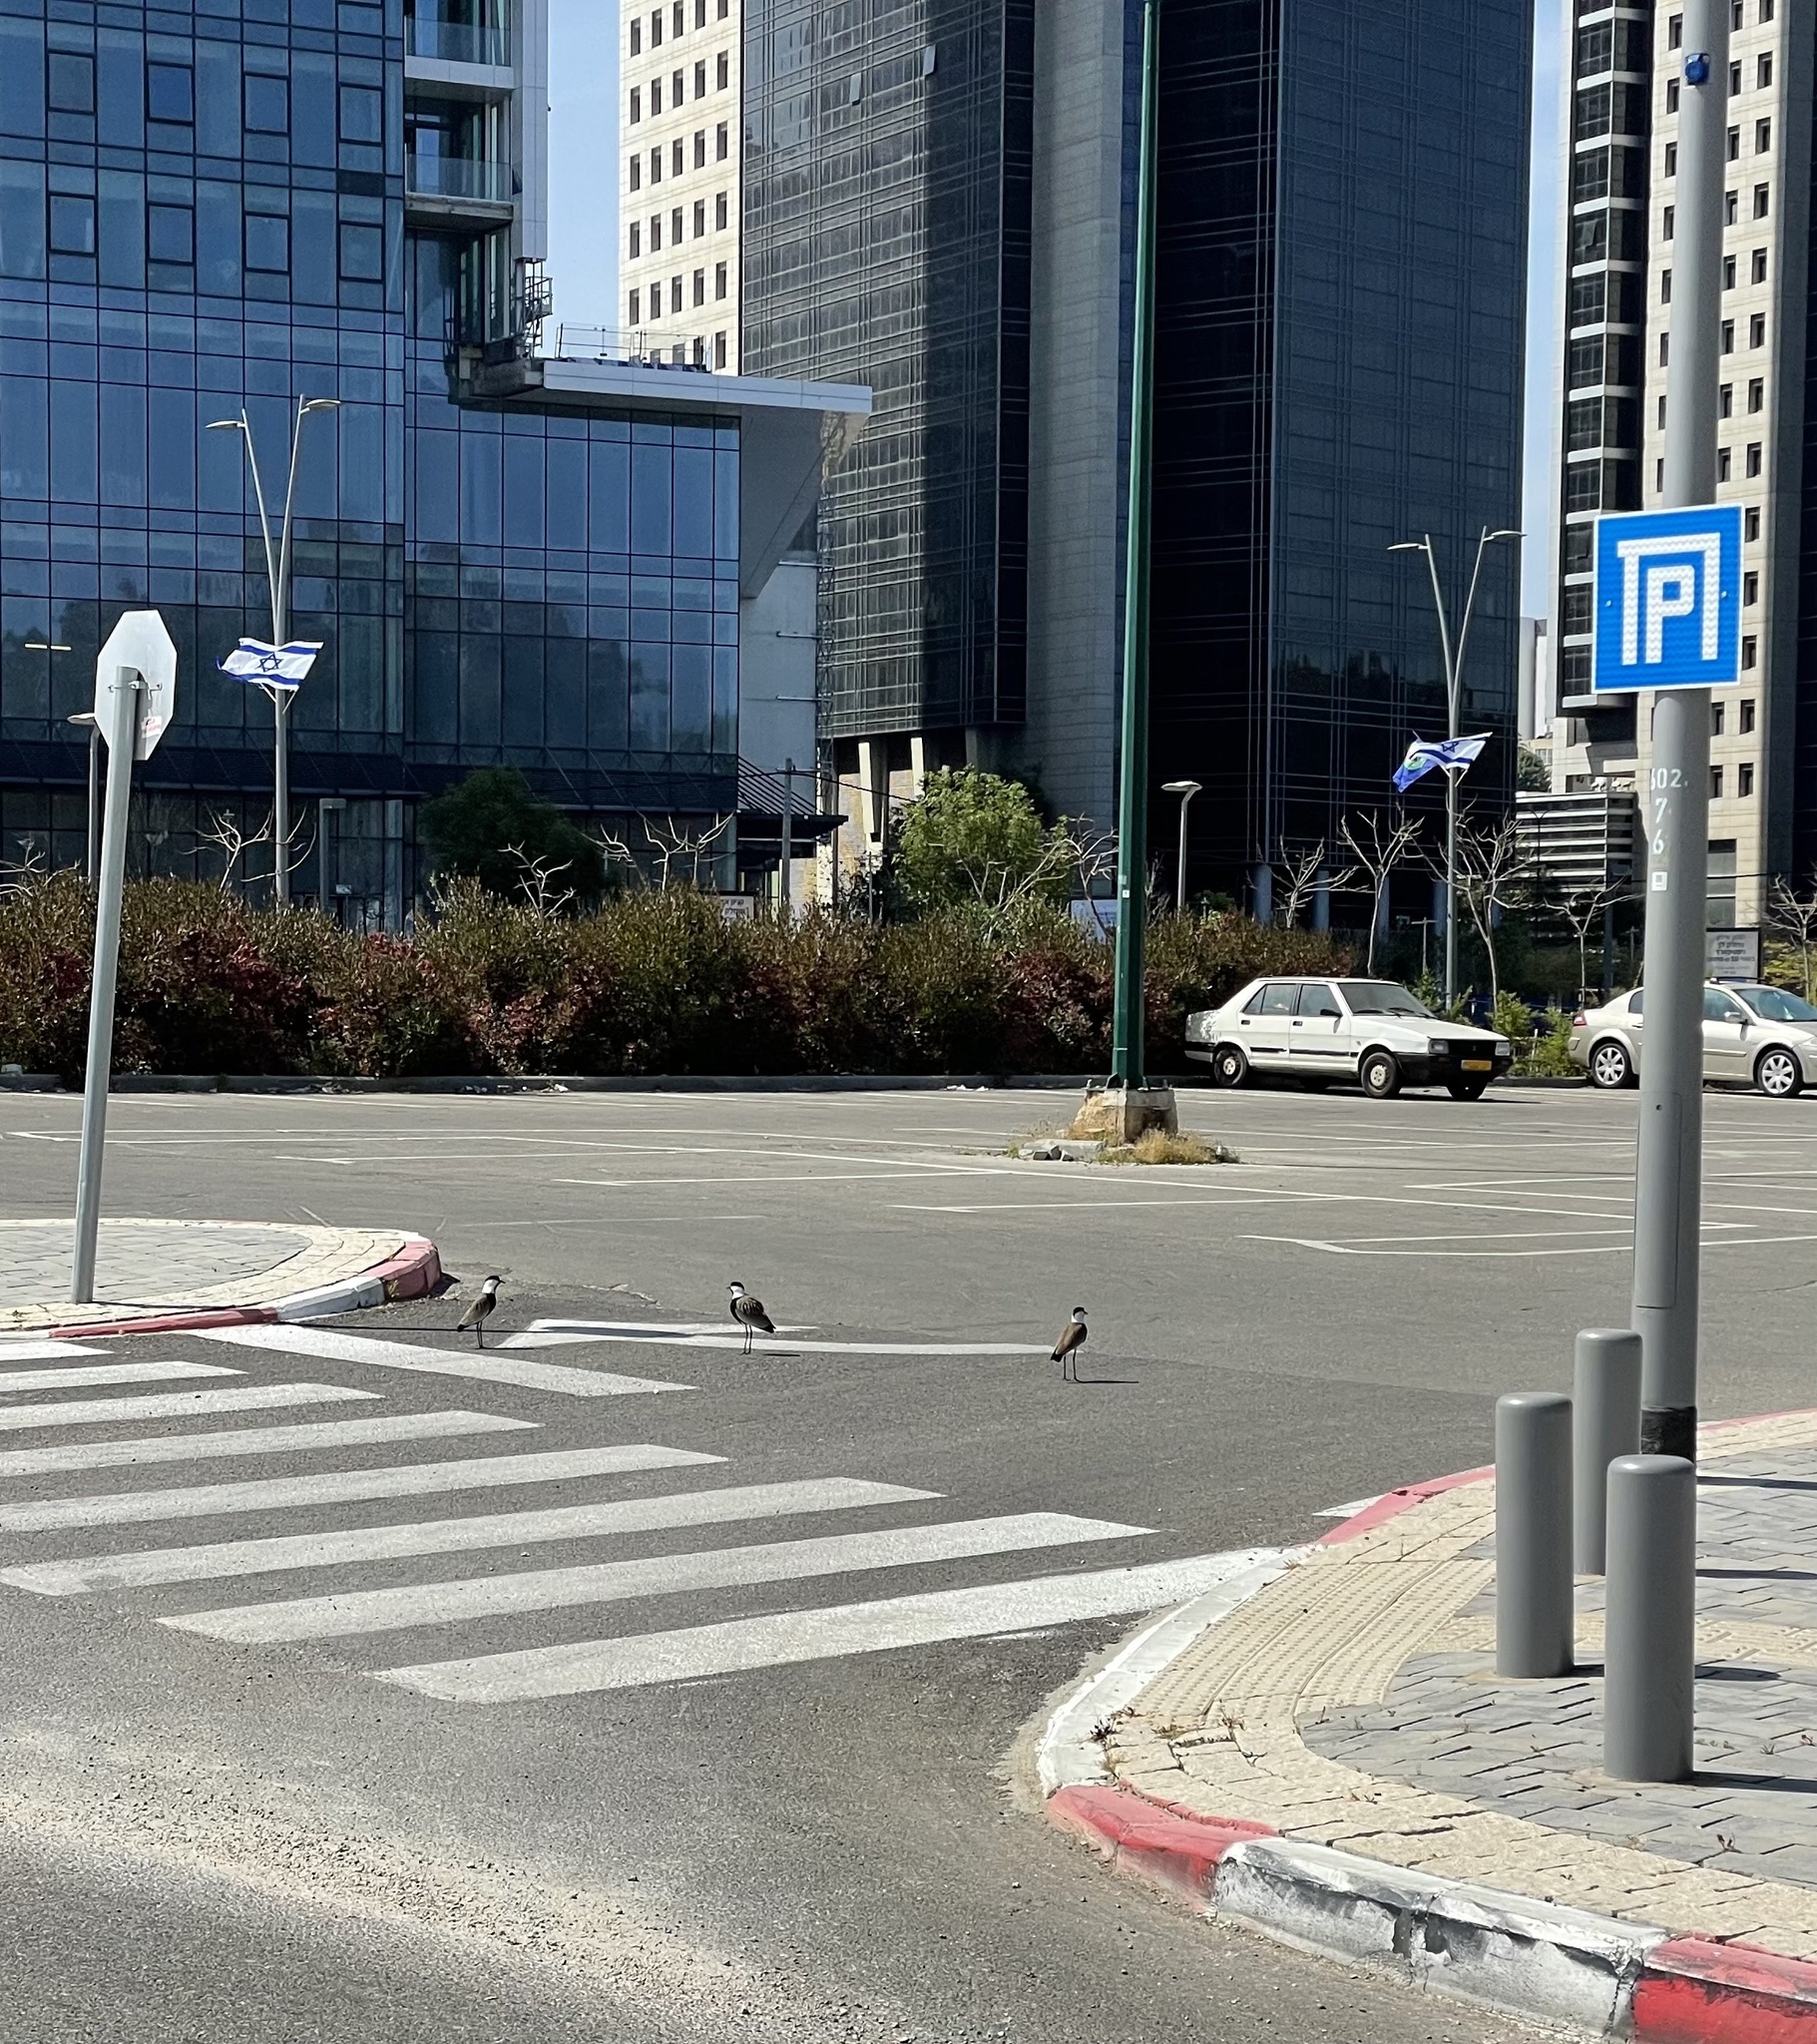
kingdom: Animalia
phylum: Chordata
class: Aves
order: Charadriiformes
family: Charadriidae
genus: Vanellus
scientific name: Vanellus spinosus
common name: Spur-winged lapwing
